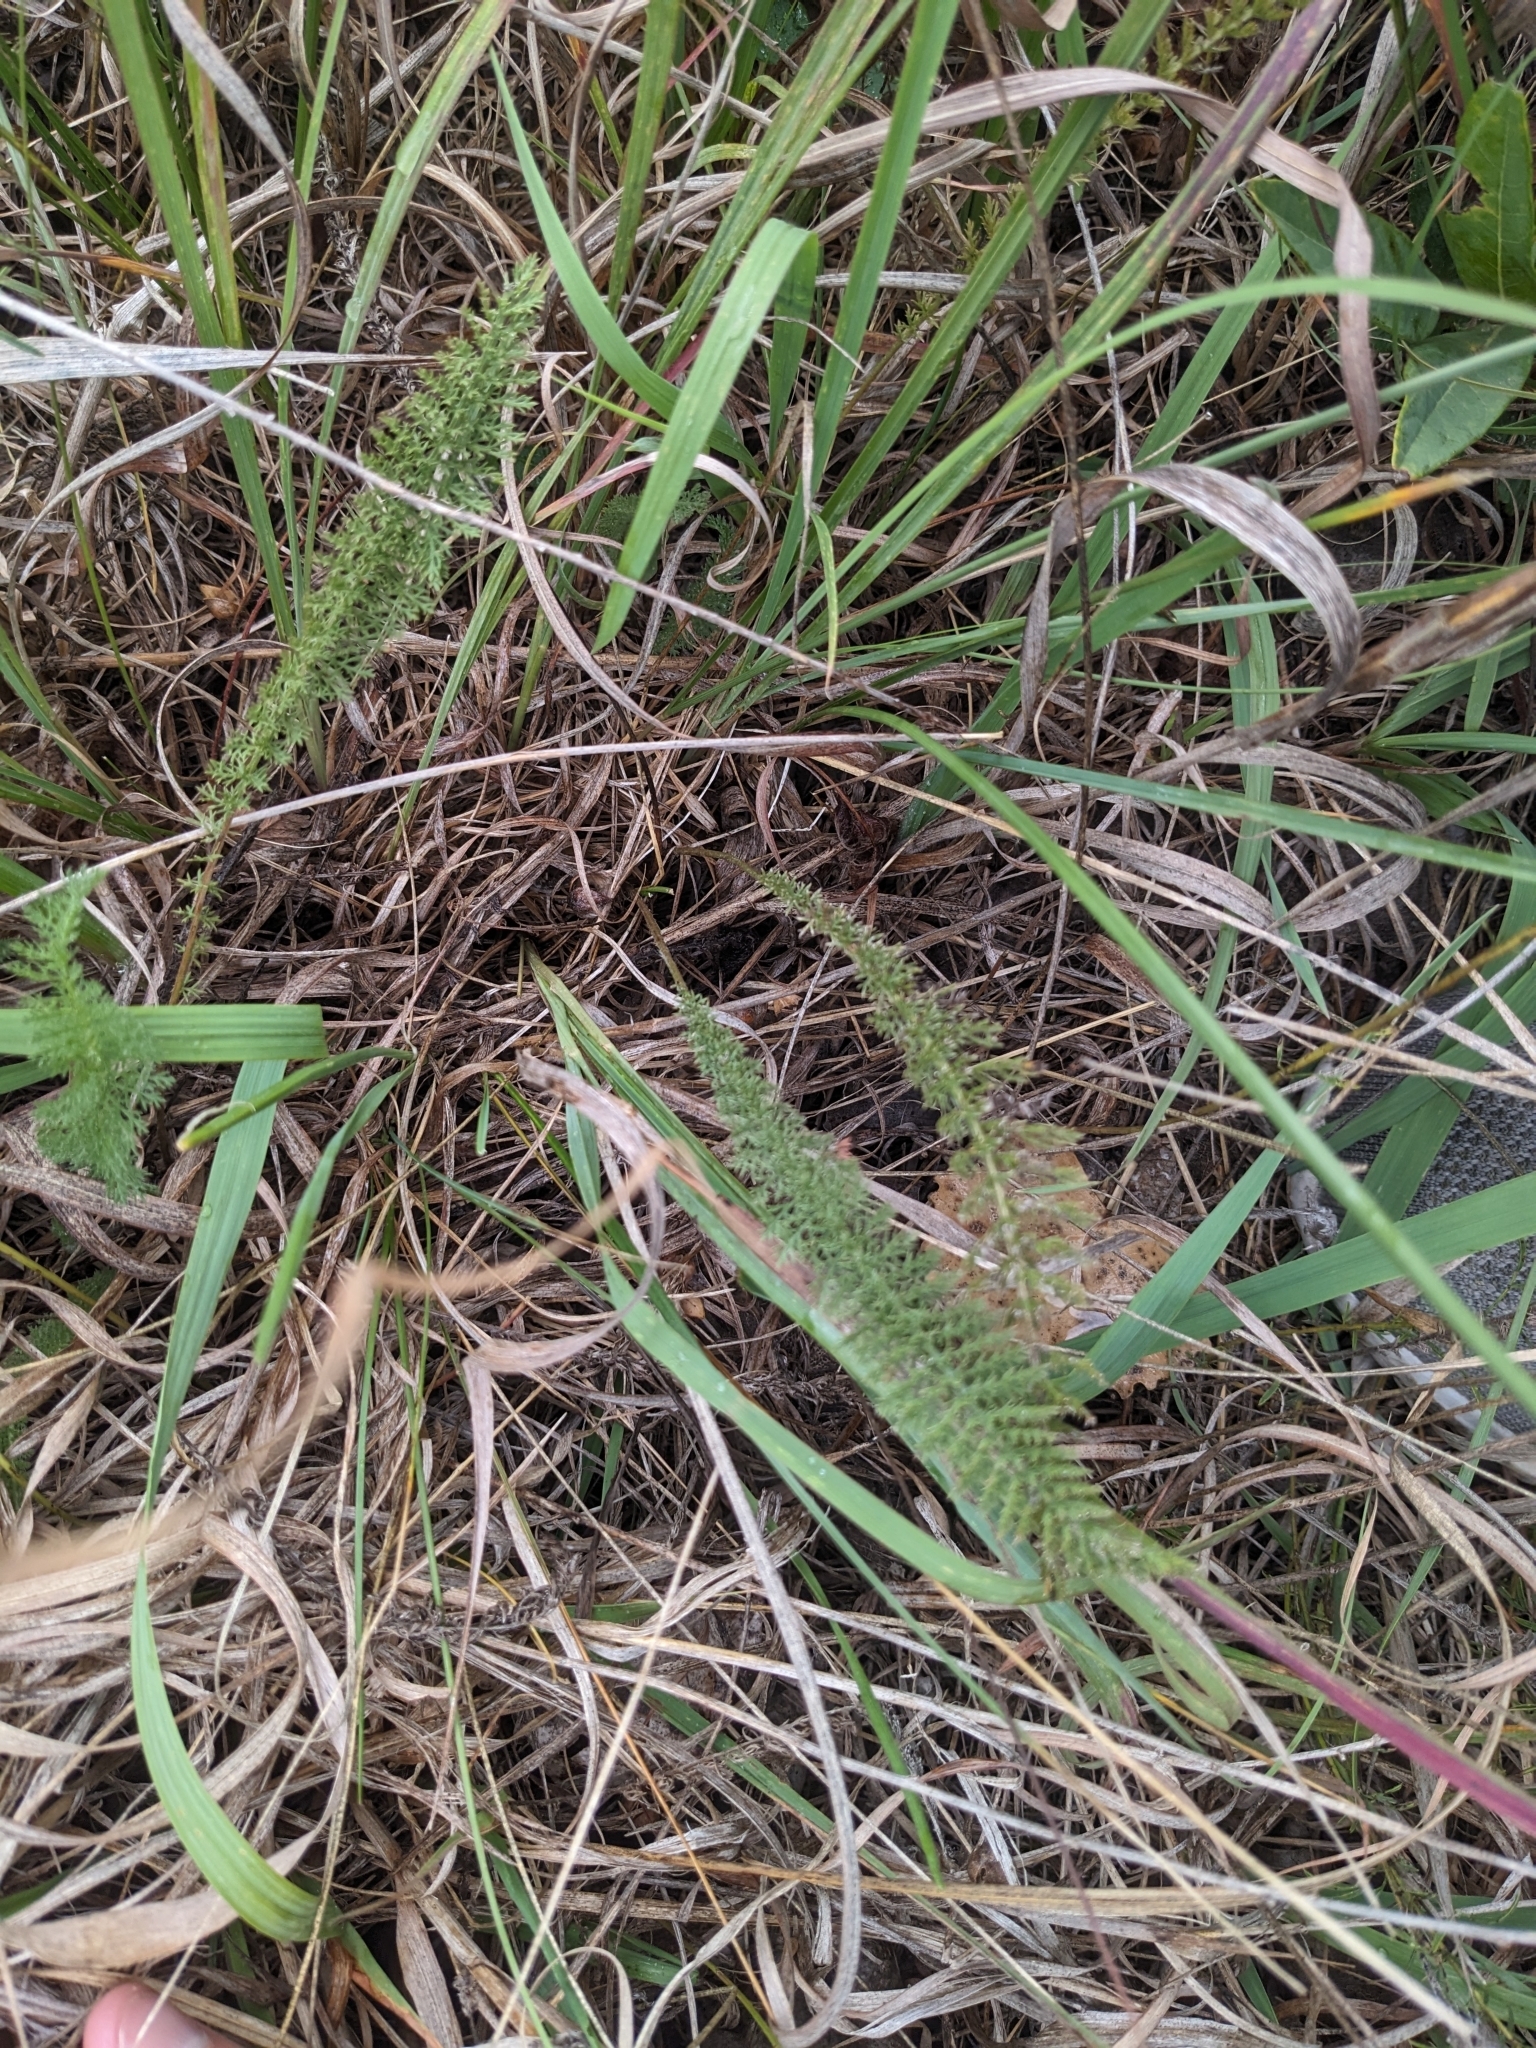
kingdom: Plantae
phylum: Tracheophyta
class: Magnoliopsida
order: Asterales
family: Asteraceae
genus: Achillea
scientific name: Achillea millefolium
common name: Yarrow
